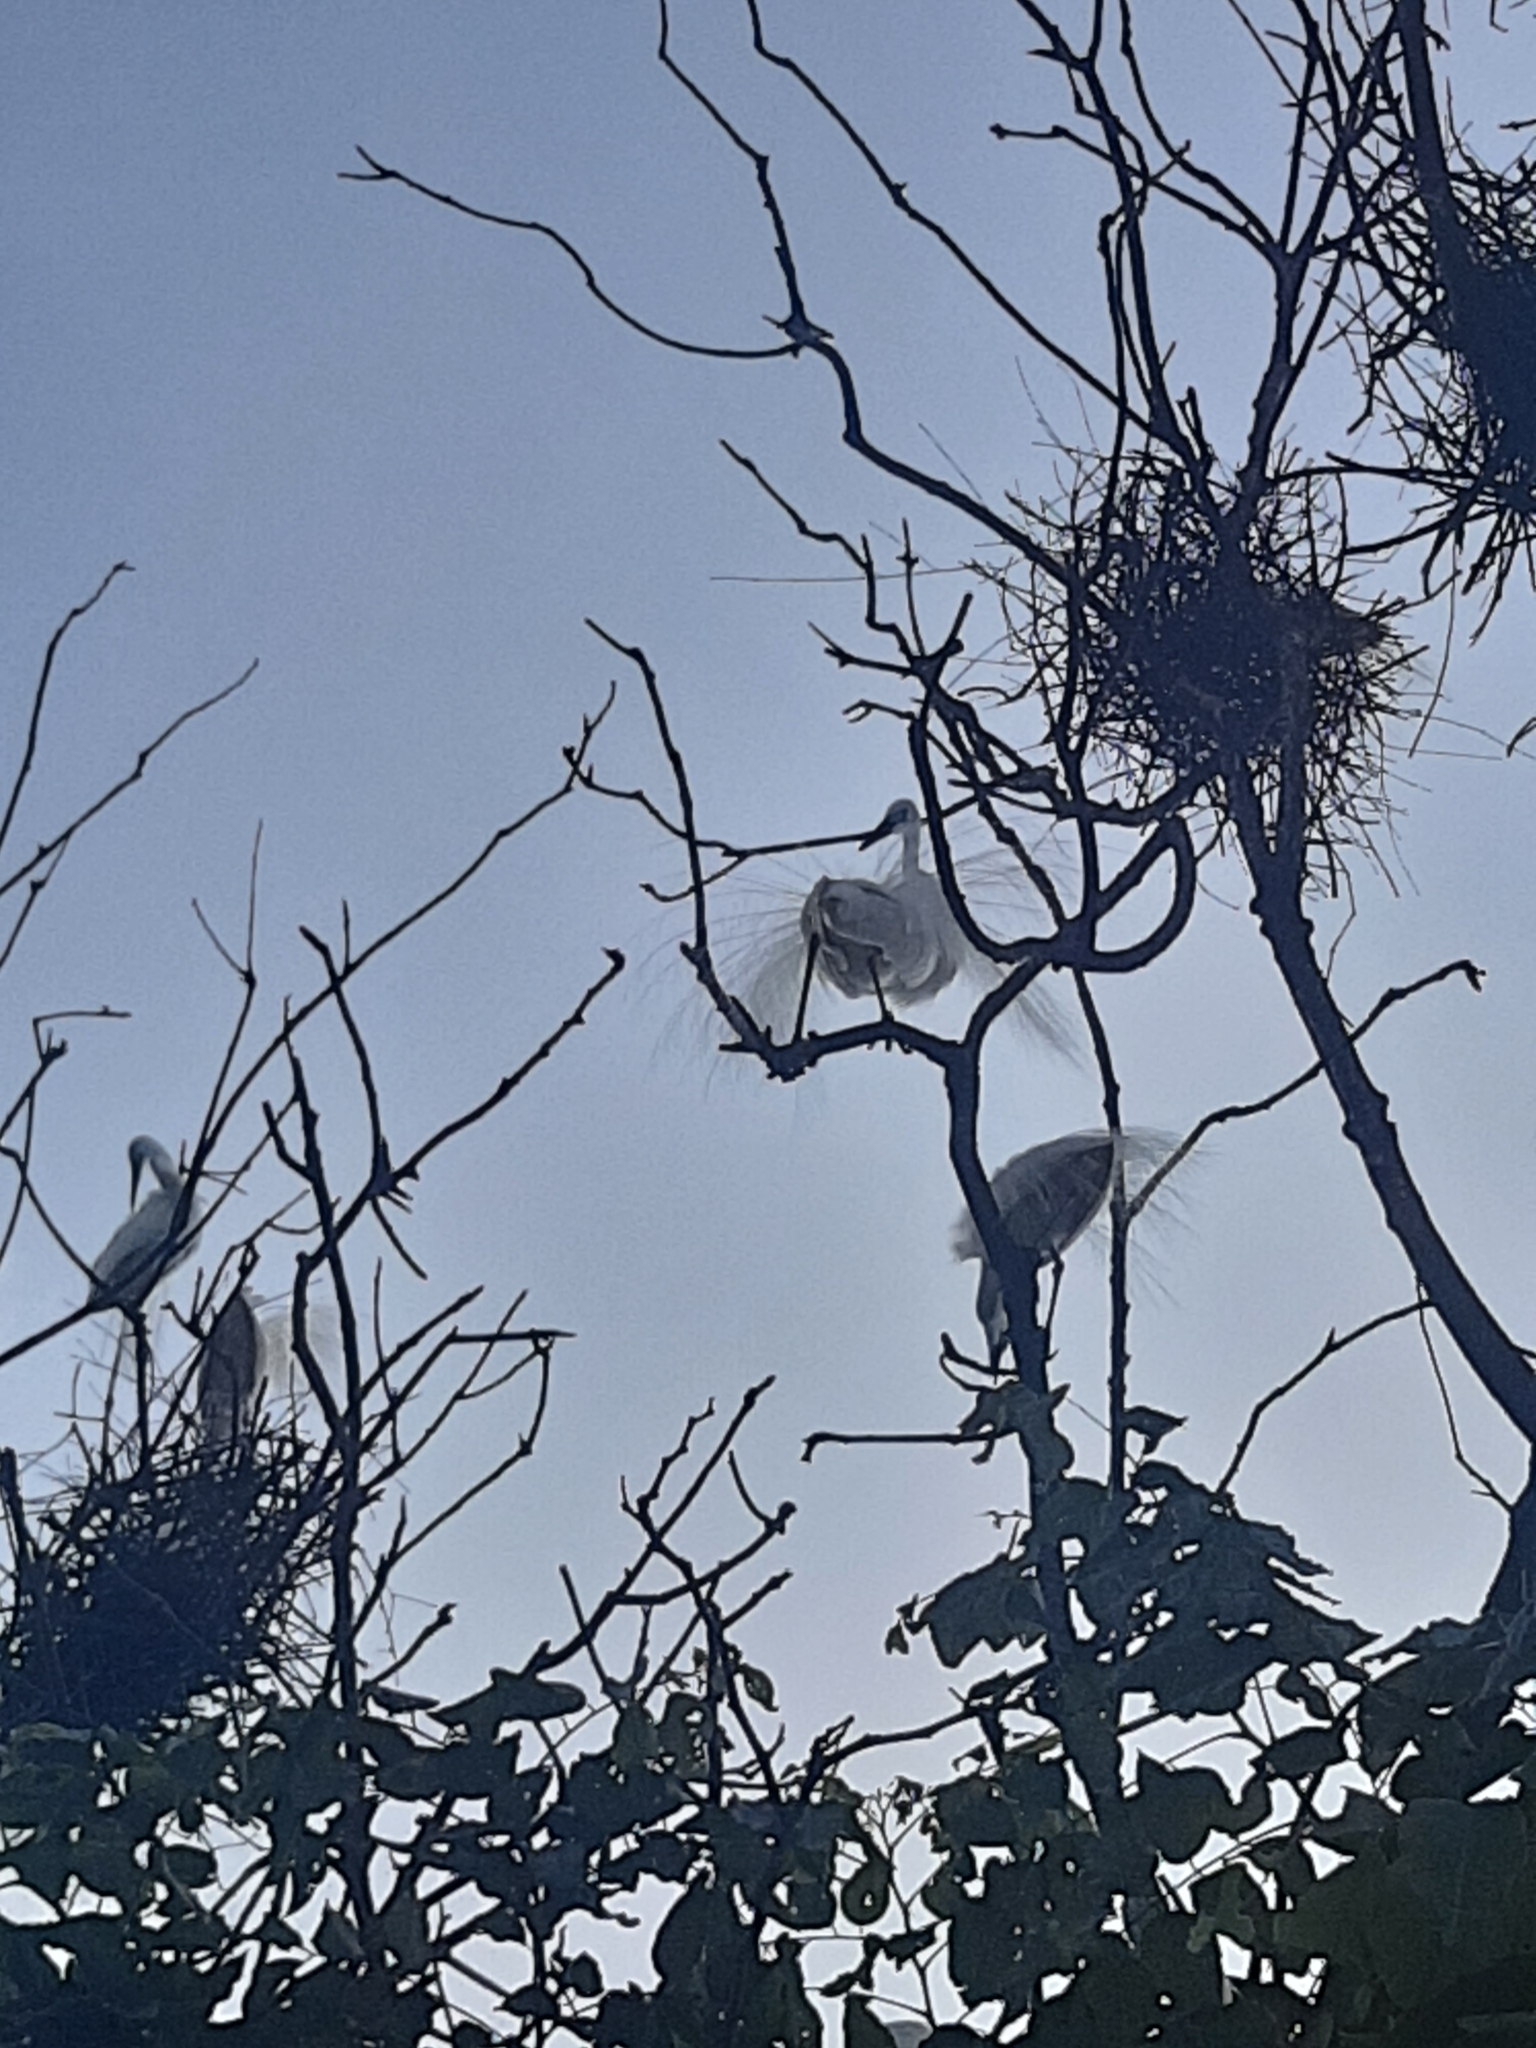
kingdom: Animalia
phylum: Chordata
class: Aves
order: Pelecaniformes
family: Ardeidae
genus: Ardea
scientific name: Ardea alba
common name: Great egret
